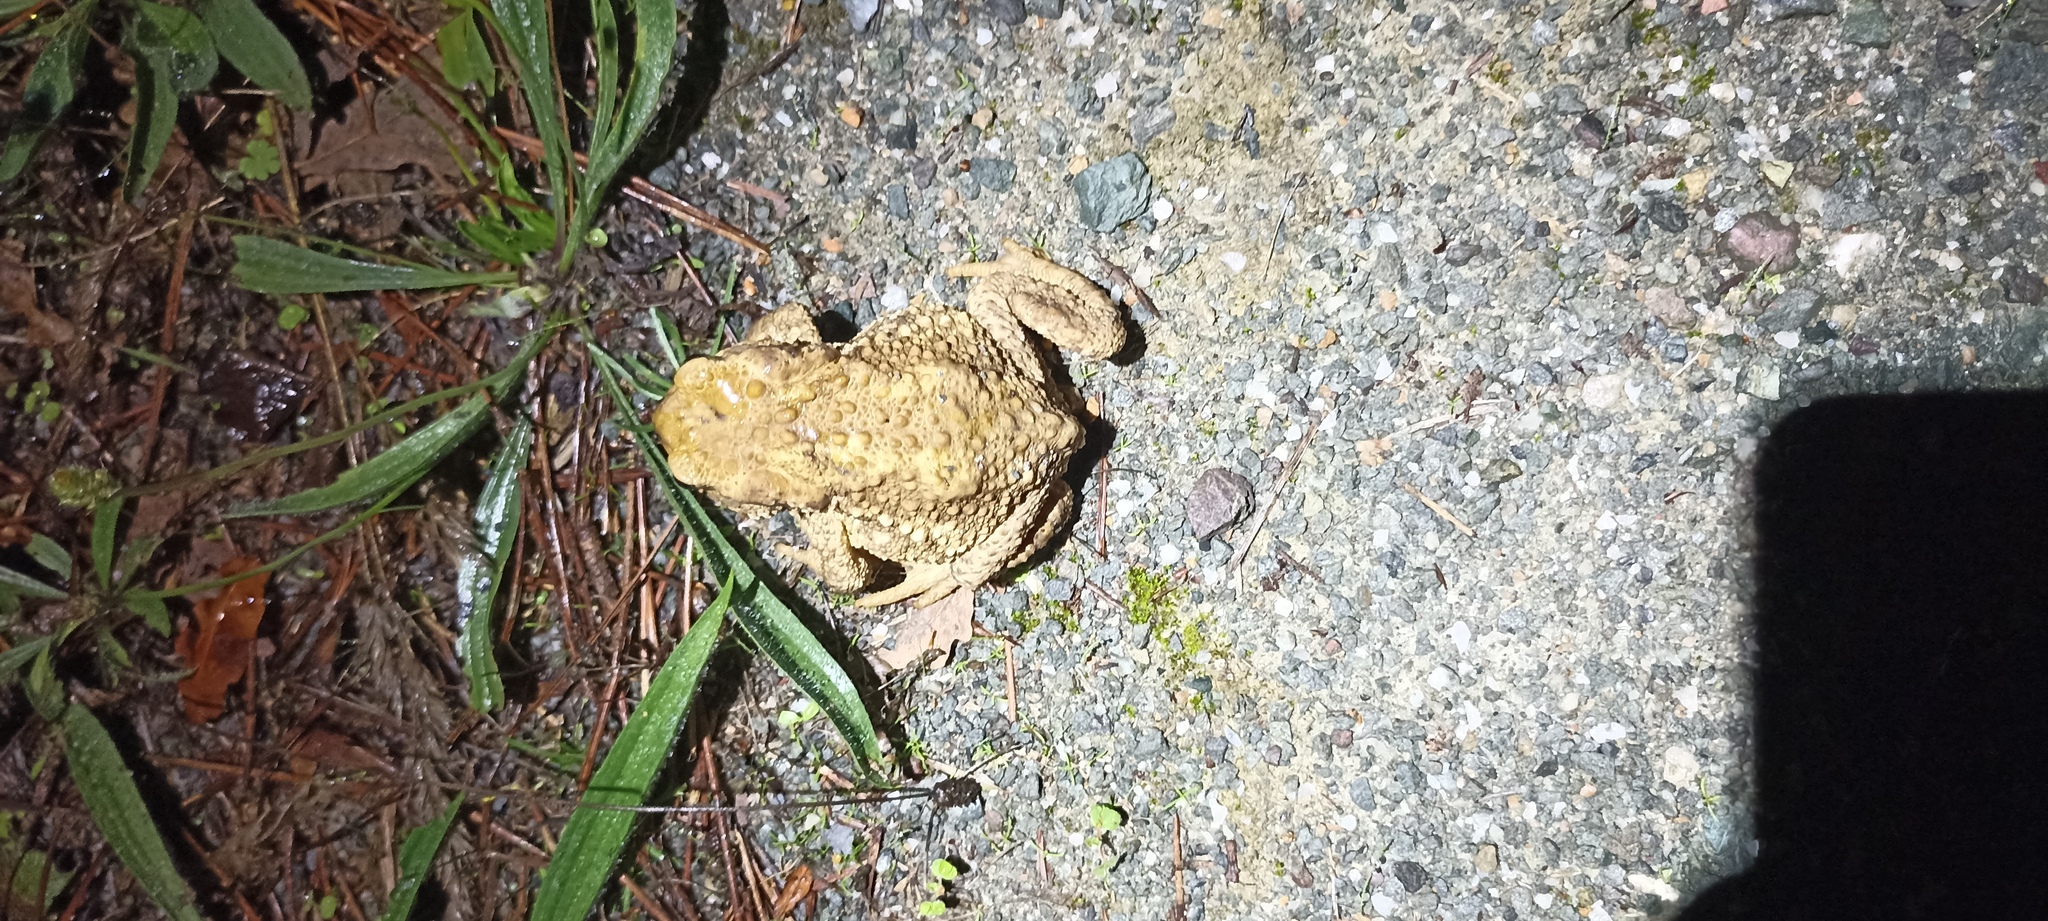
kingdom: Animalia
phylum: Chordata
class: Amphibia
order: Anura
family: Bufonidae
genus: Bufo
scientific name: Bufo spinosus
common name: Western common toad
